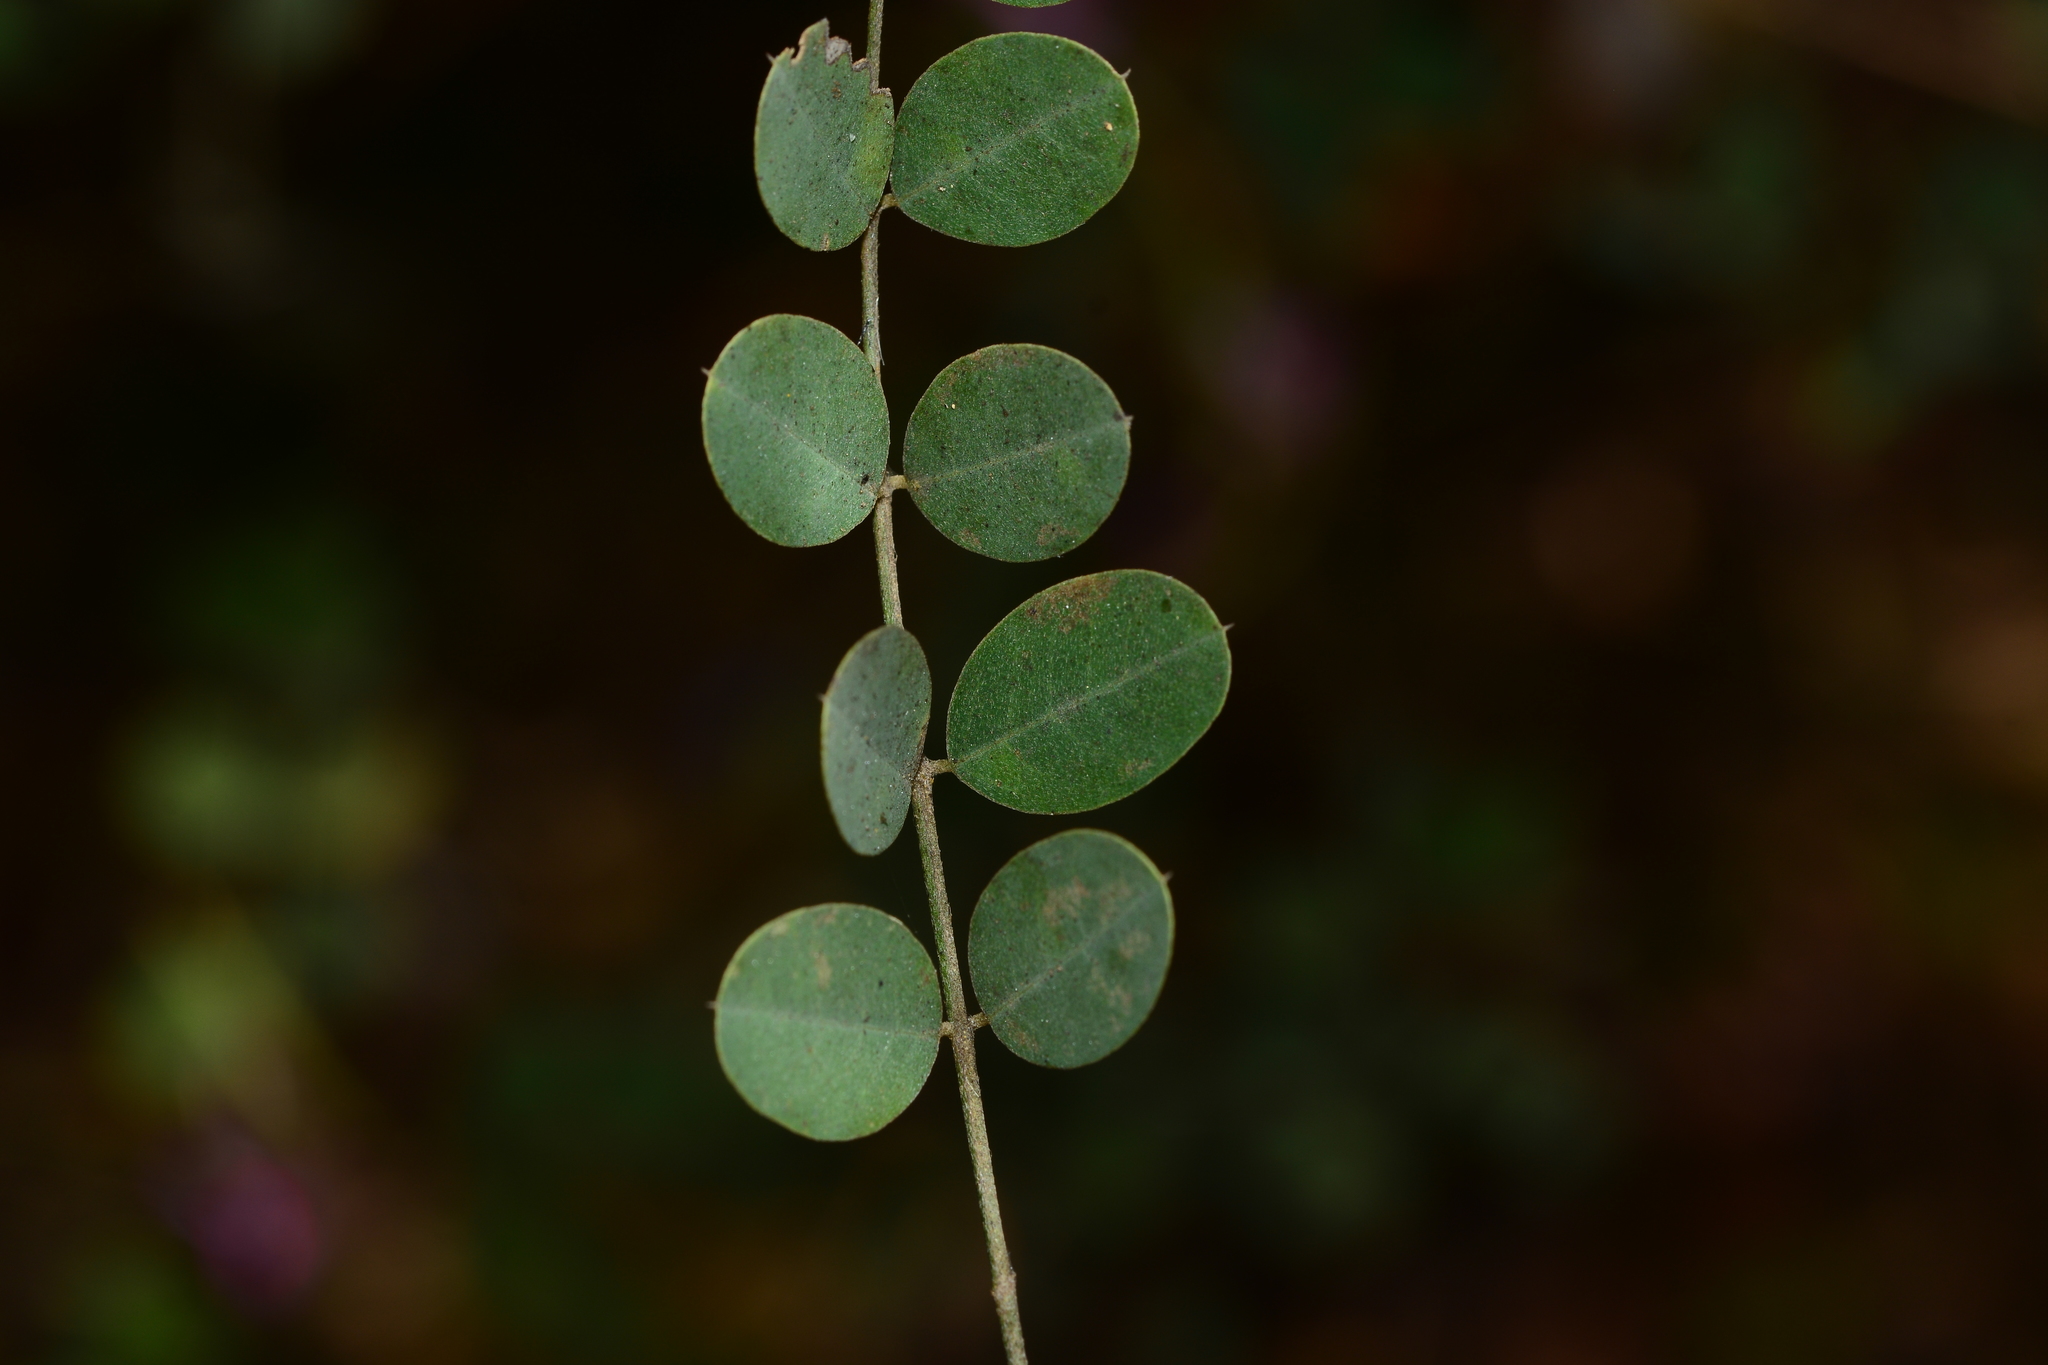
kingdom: Plantae
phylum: Tracheophyta
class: Magnoliopsida
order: Fabales
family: Fabaceae
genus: Indigofera
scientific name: Indigofera cassioides
